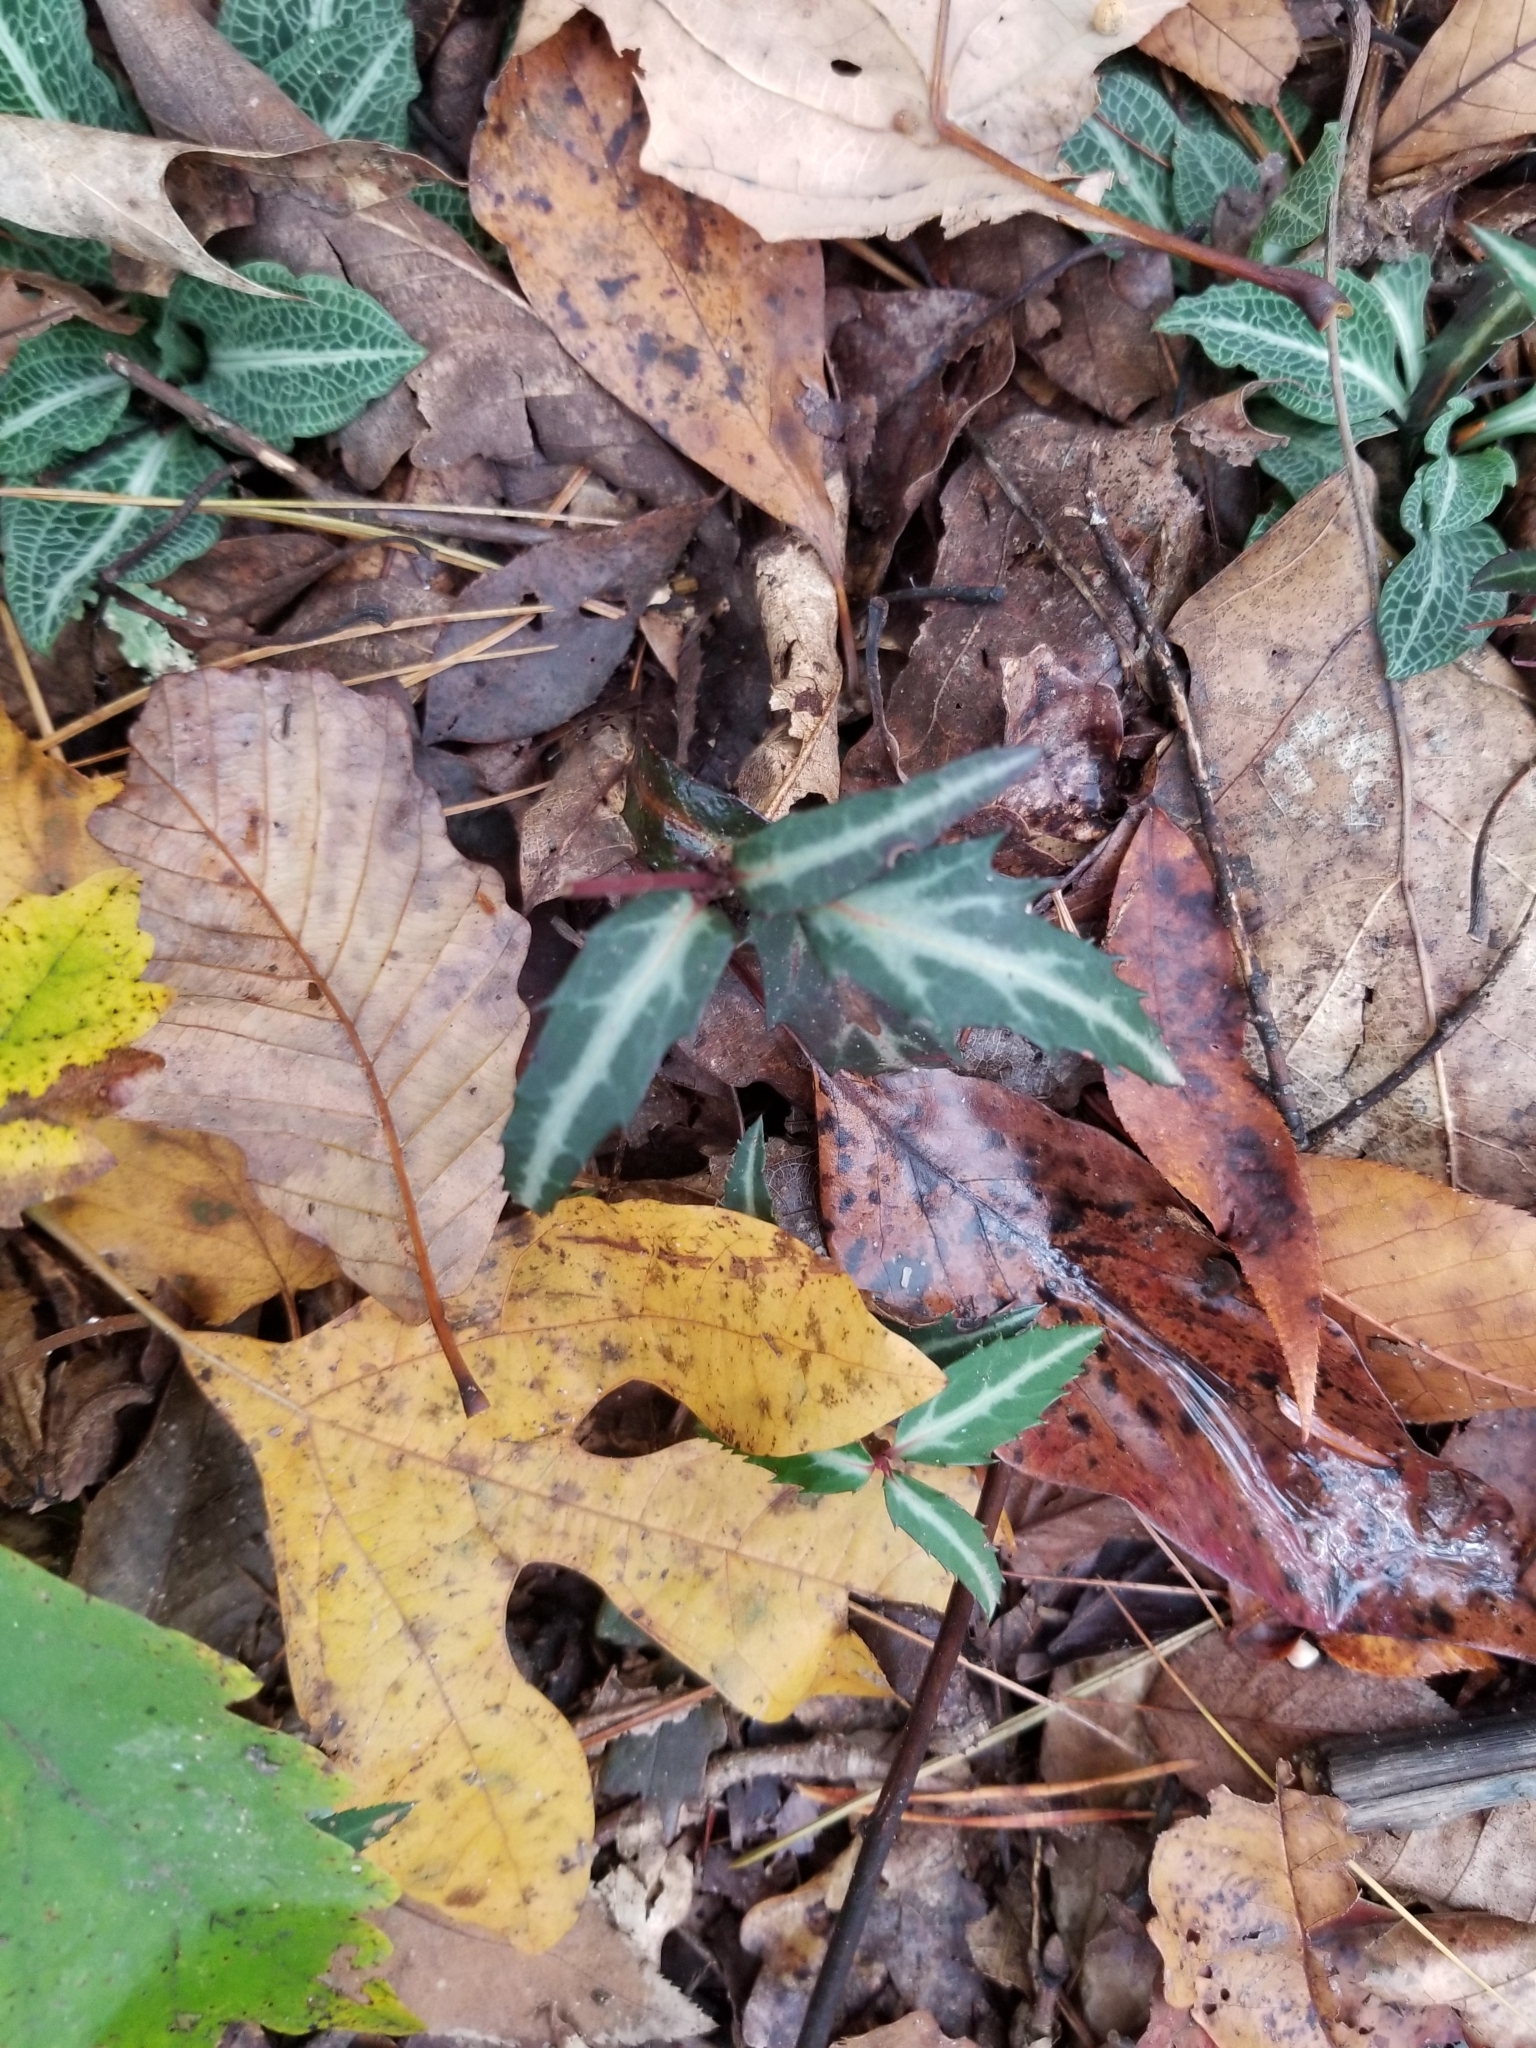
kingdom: Plantae
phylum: Tracheophyta
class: Magnoliopsida
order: Ericales
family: Ericaceae
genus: Chimaphila
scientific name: Chimaphila maculata
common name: Spotted pipsissewa
